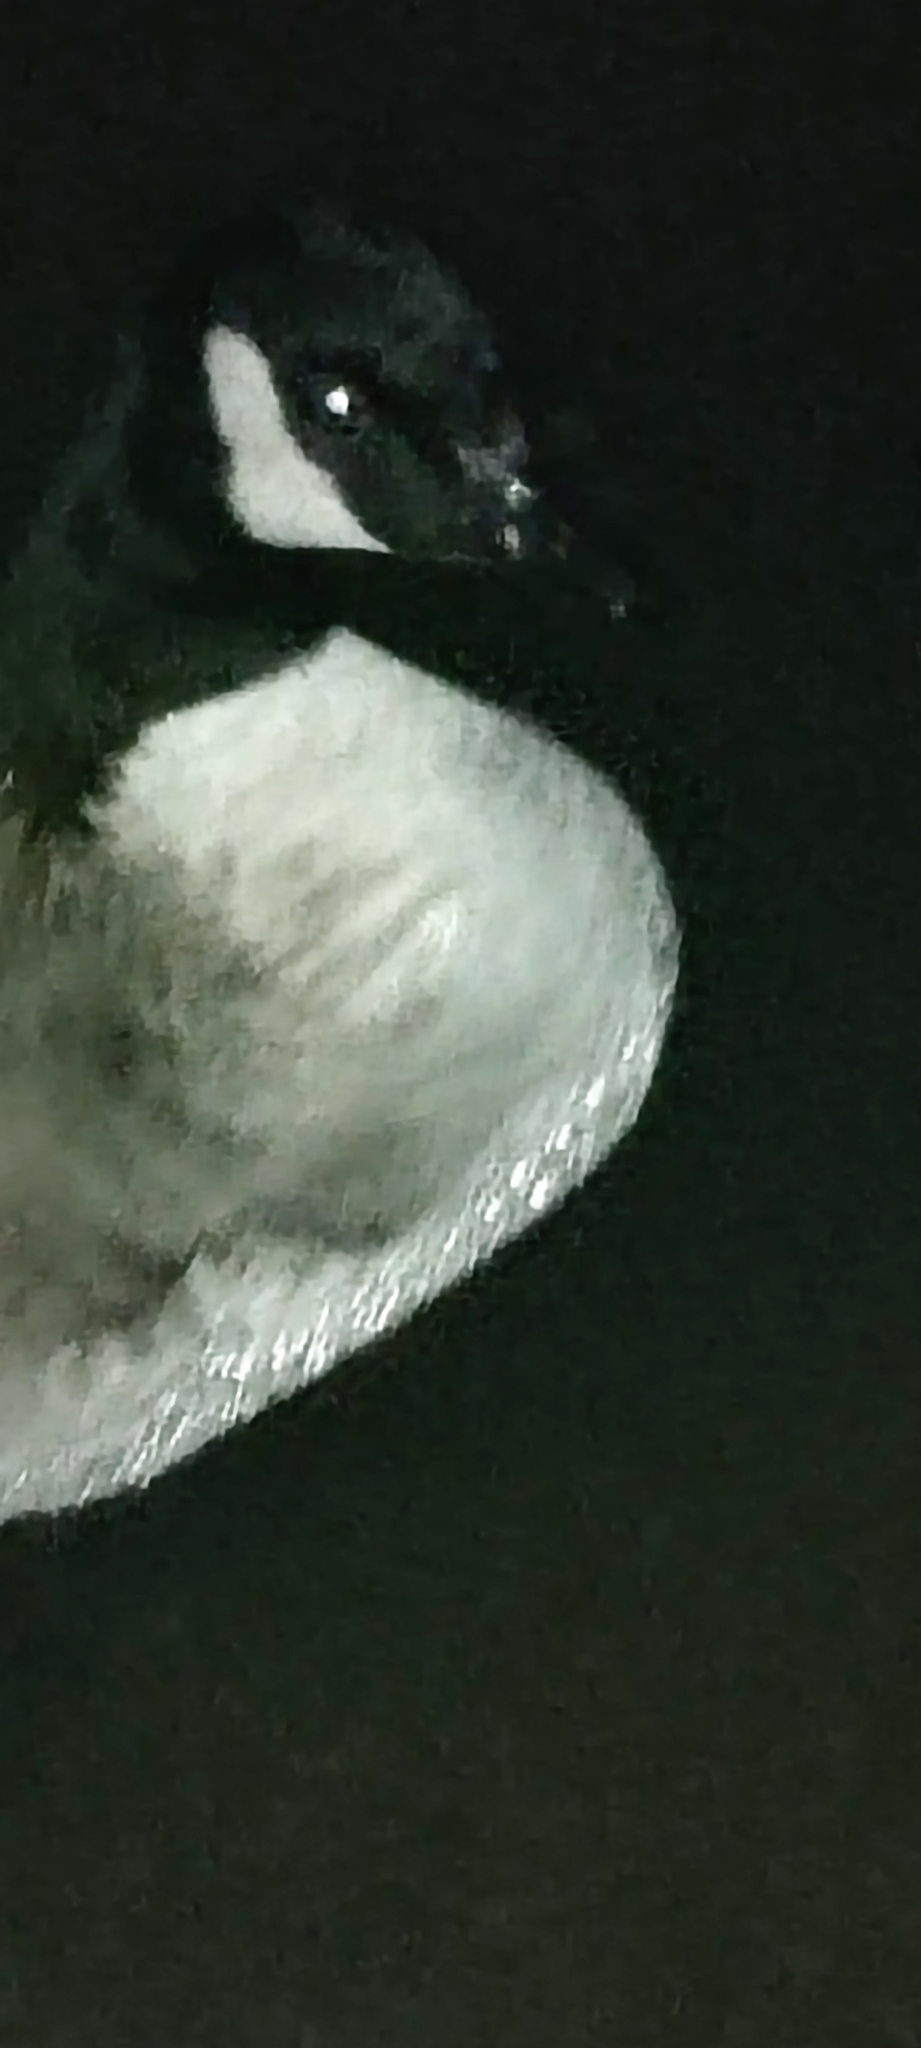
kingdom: Animalia
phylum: Chordata
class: Aves
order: Anseriformes
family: Anatidae
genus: Branta
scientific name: Branta canadensis
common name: Canada goose
